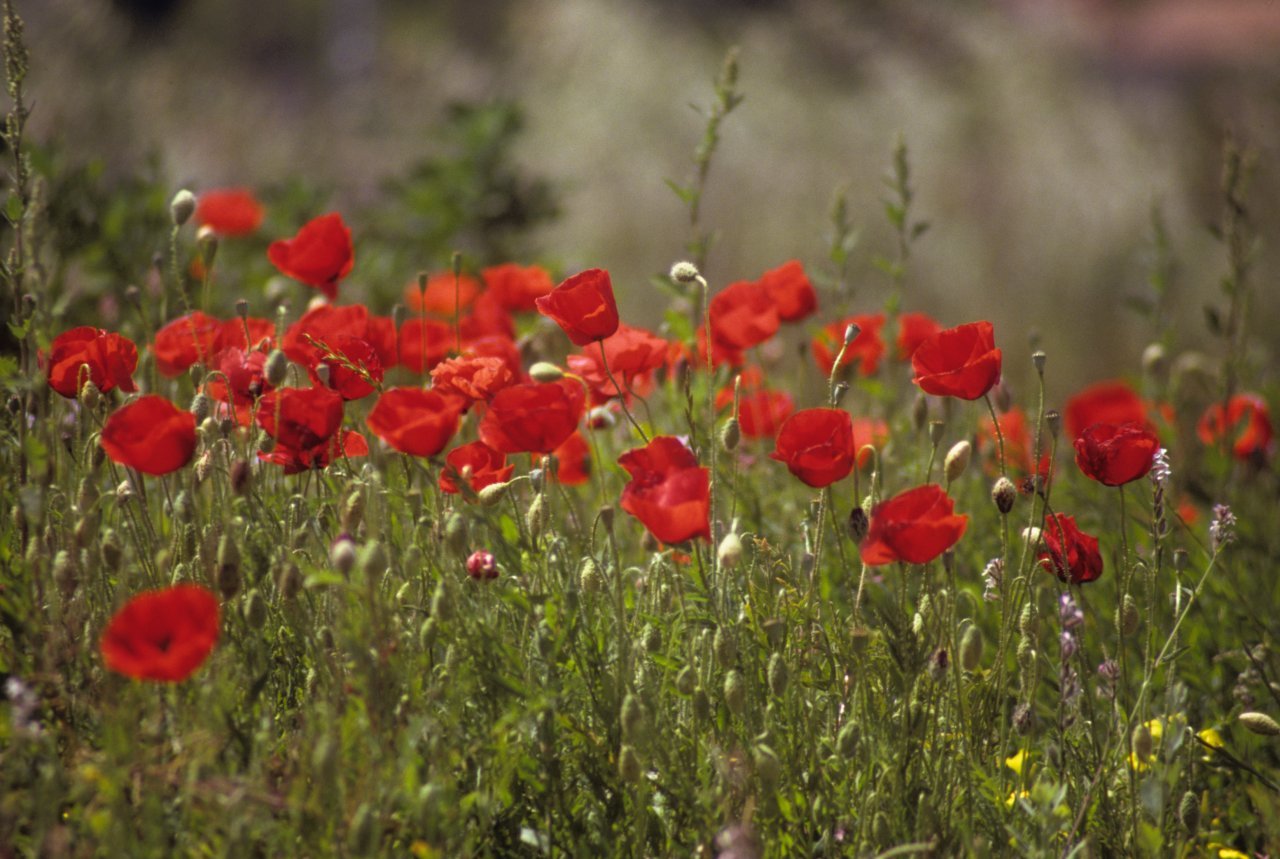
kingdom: Plantae
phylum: Tracheophyta
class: Magnoliopsida
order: Ranunculales
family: Papaveraceae
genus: Papaver
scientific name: Papaver rhoeas
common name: Corn poppy
